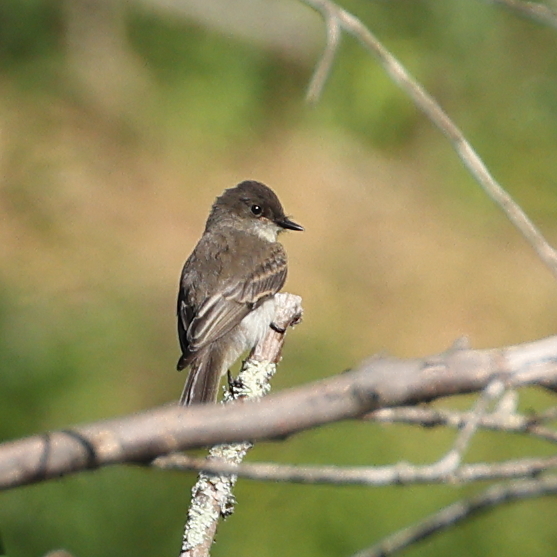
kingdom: Animalia
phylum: Chordata
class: Aves
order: Passeriformes
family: Tyrannidae
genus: Sayornis
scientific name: Sayornis phoebe
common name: Eastern phoebe
